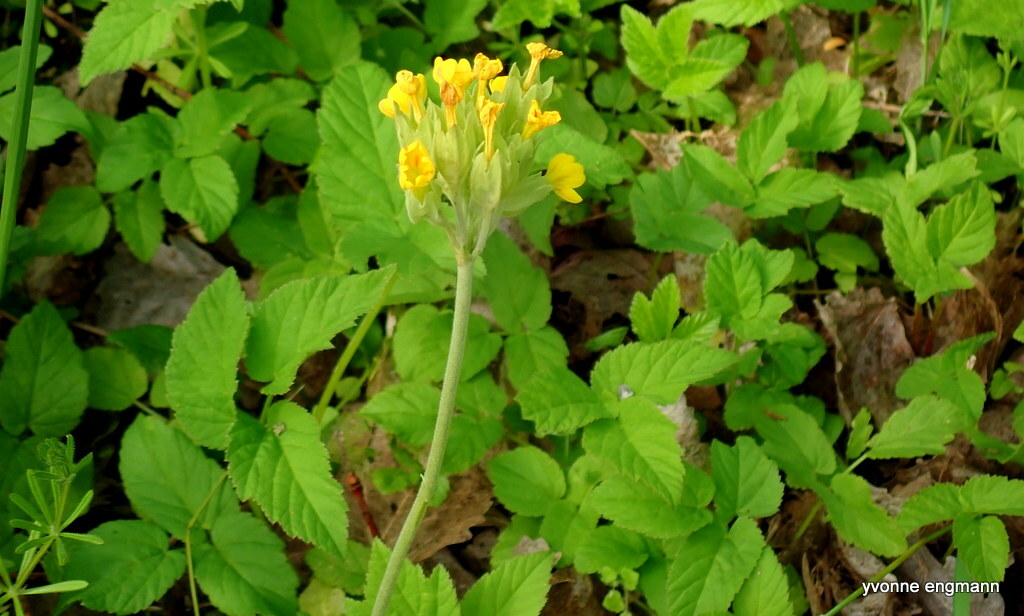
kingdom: Plantae
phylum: Tracheophyta
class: Magnoliopsida
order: Ericales
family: Primulaceae
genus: Primula
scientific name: Primula veris
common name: Cowslip
